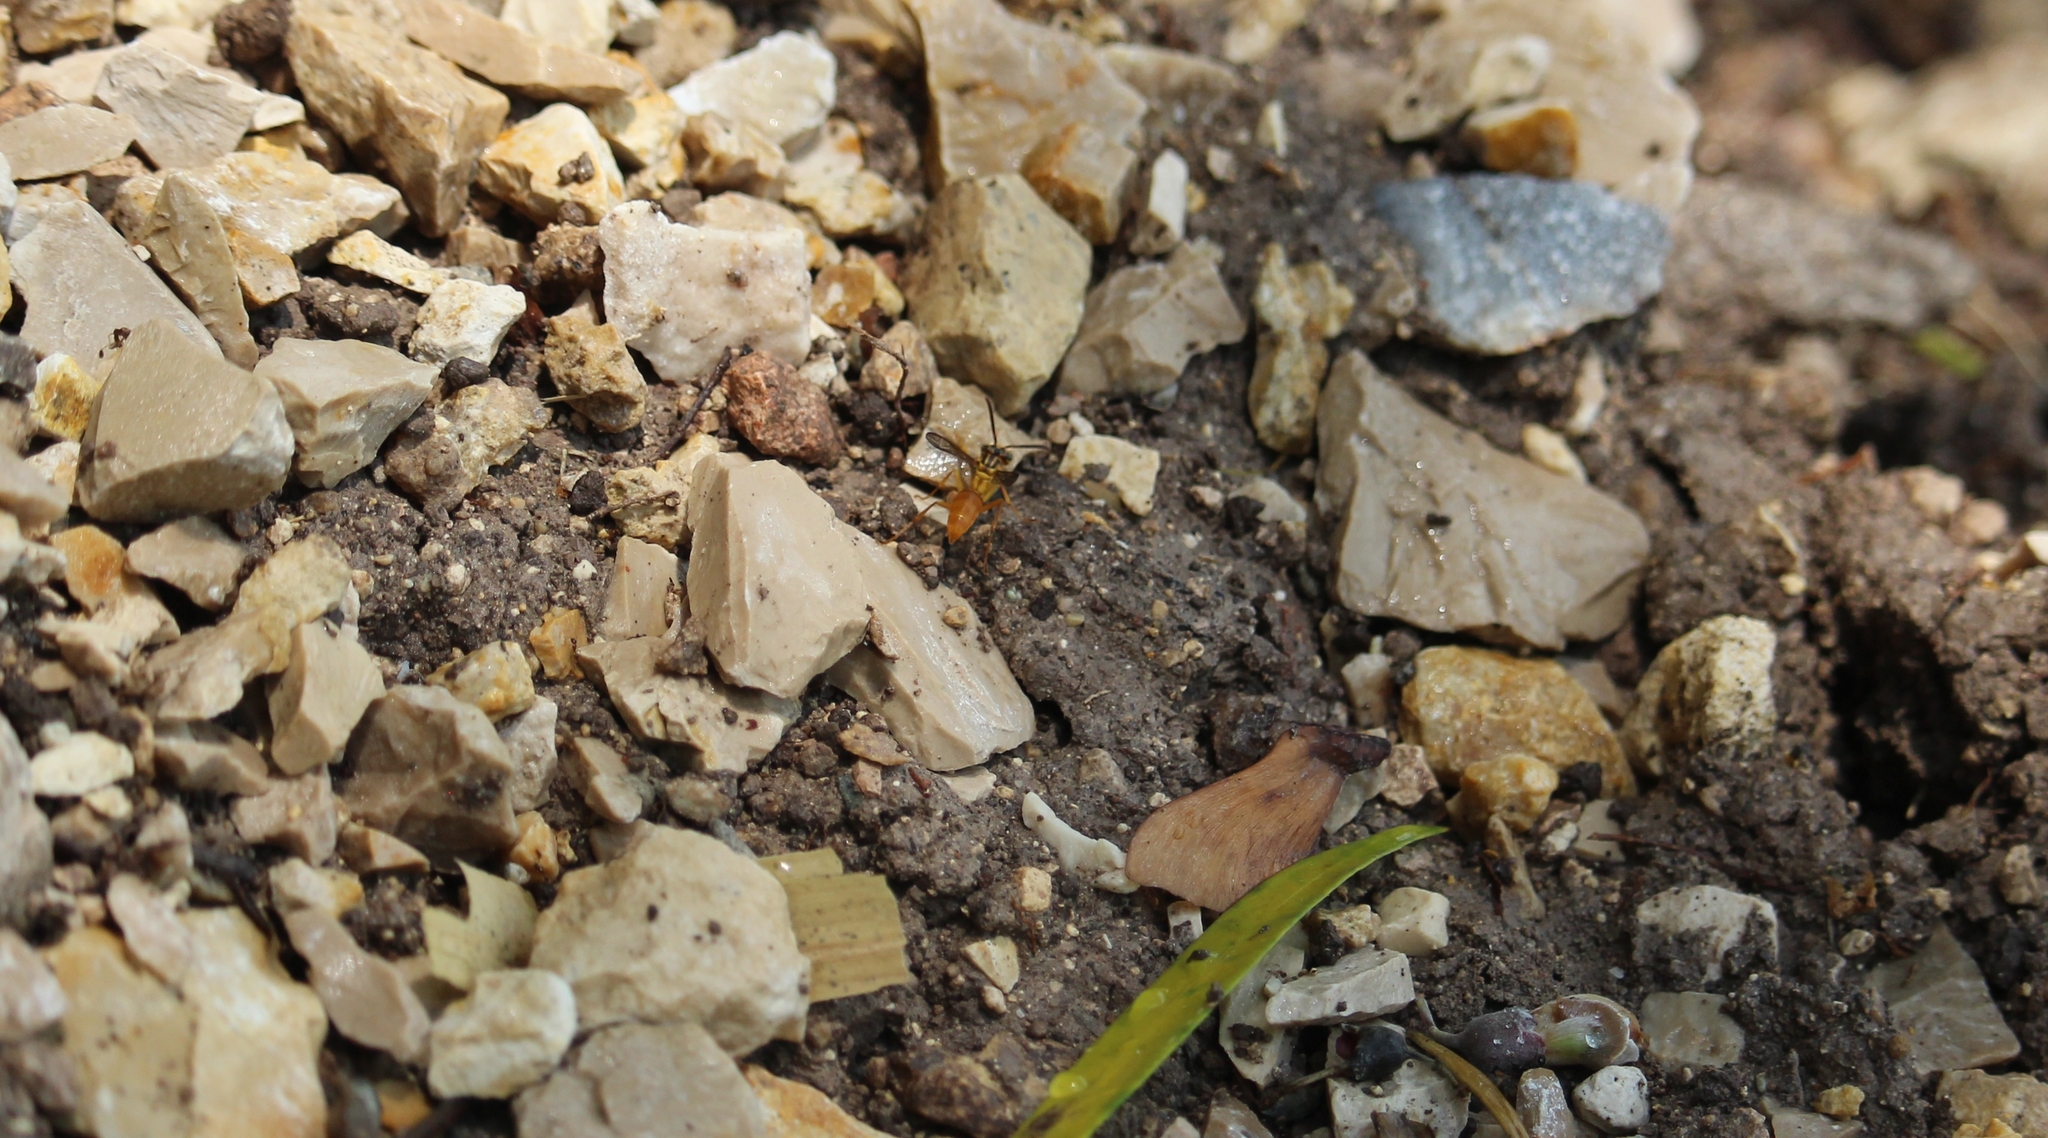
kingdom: Animalia
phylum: Arthropoda
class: Insecta
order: Hymenoptera
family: Vespidae
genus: Agelaia
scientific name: Agelaia centralis
